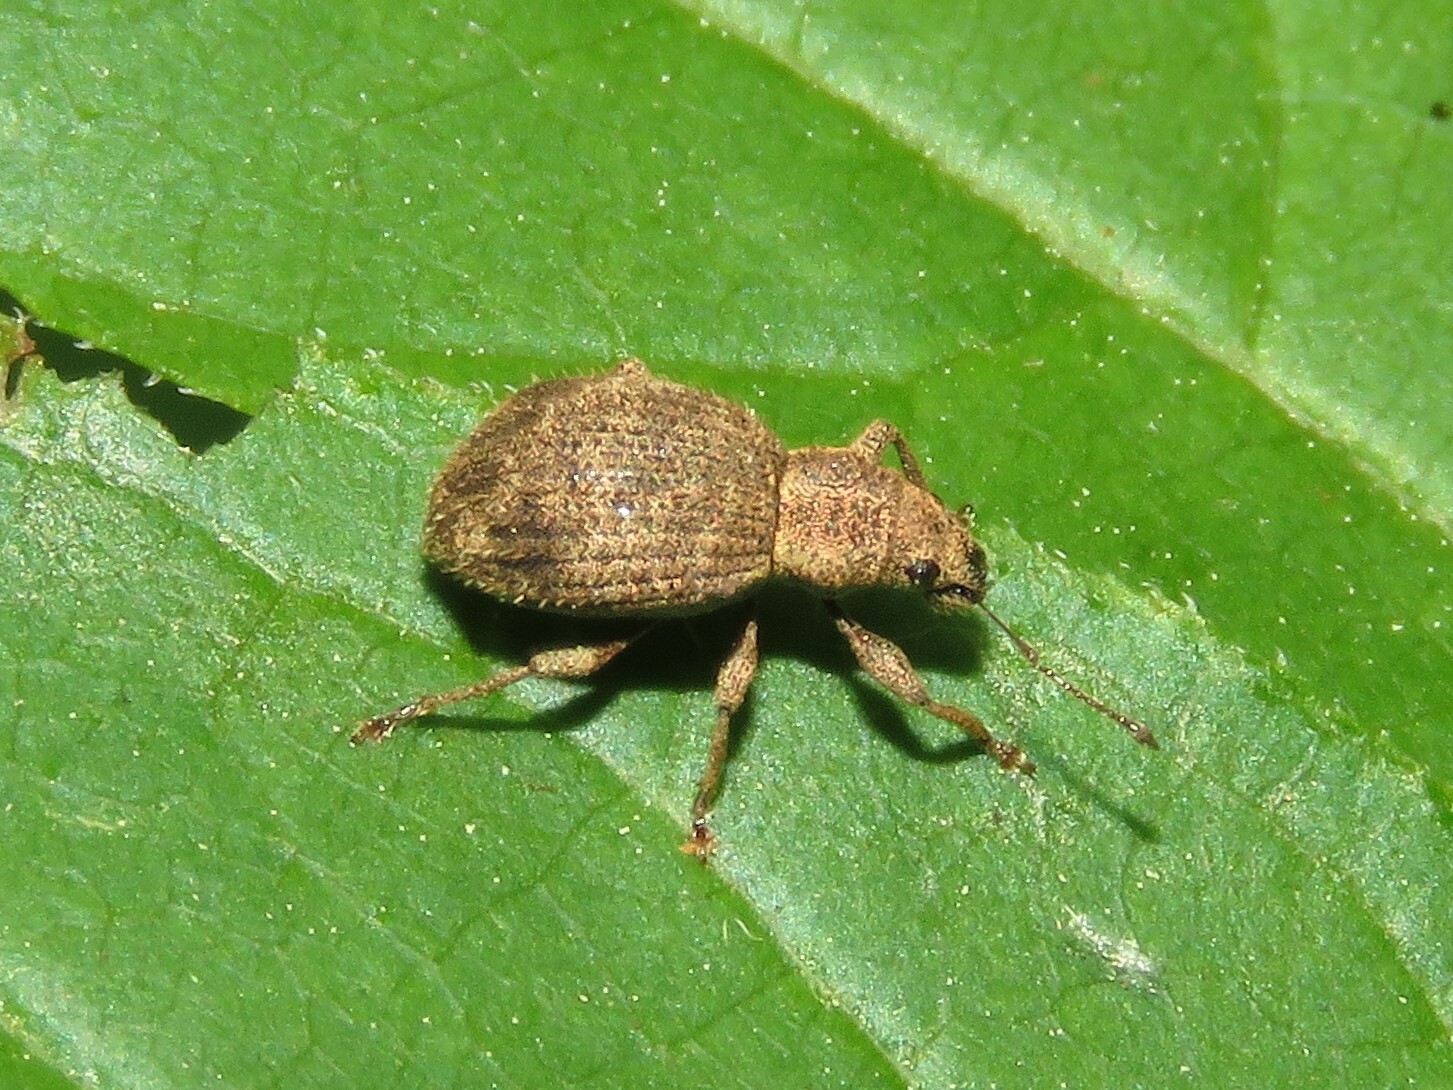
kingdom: Animalia
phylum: Arthropoda
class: Insecta
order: Coleoptera
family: Curculionidae
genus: Sciaphilus
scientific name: Sciaphilus asperatus
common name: Weevil
